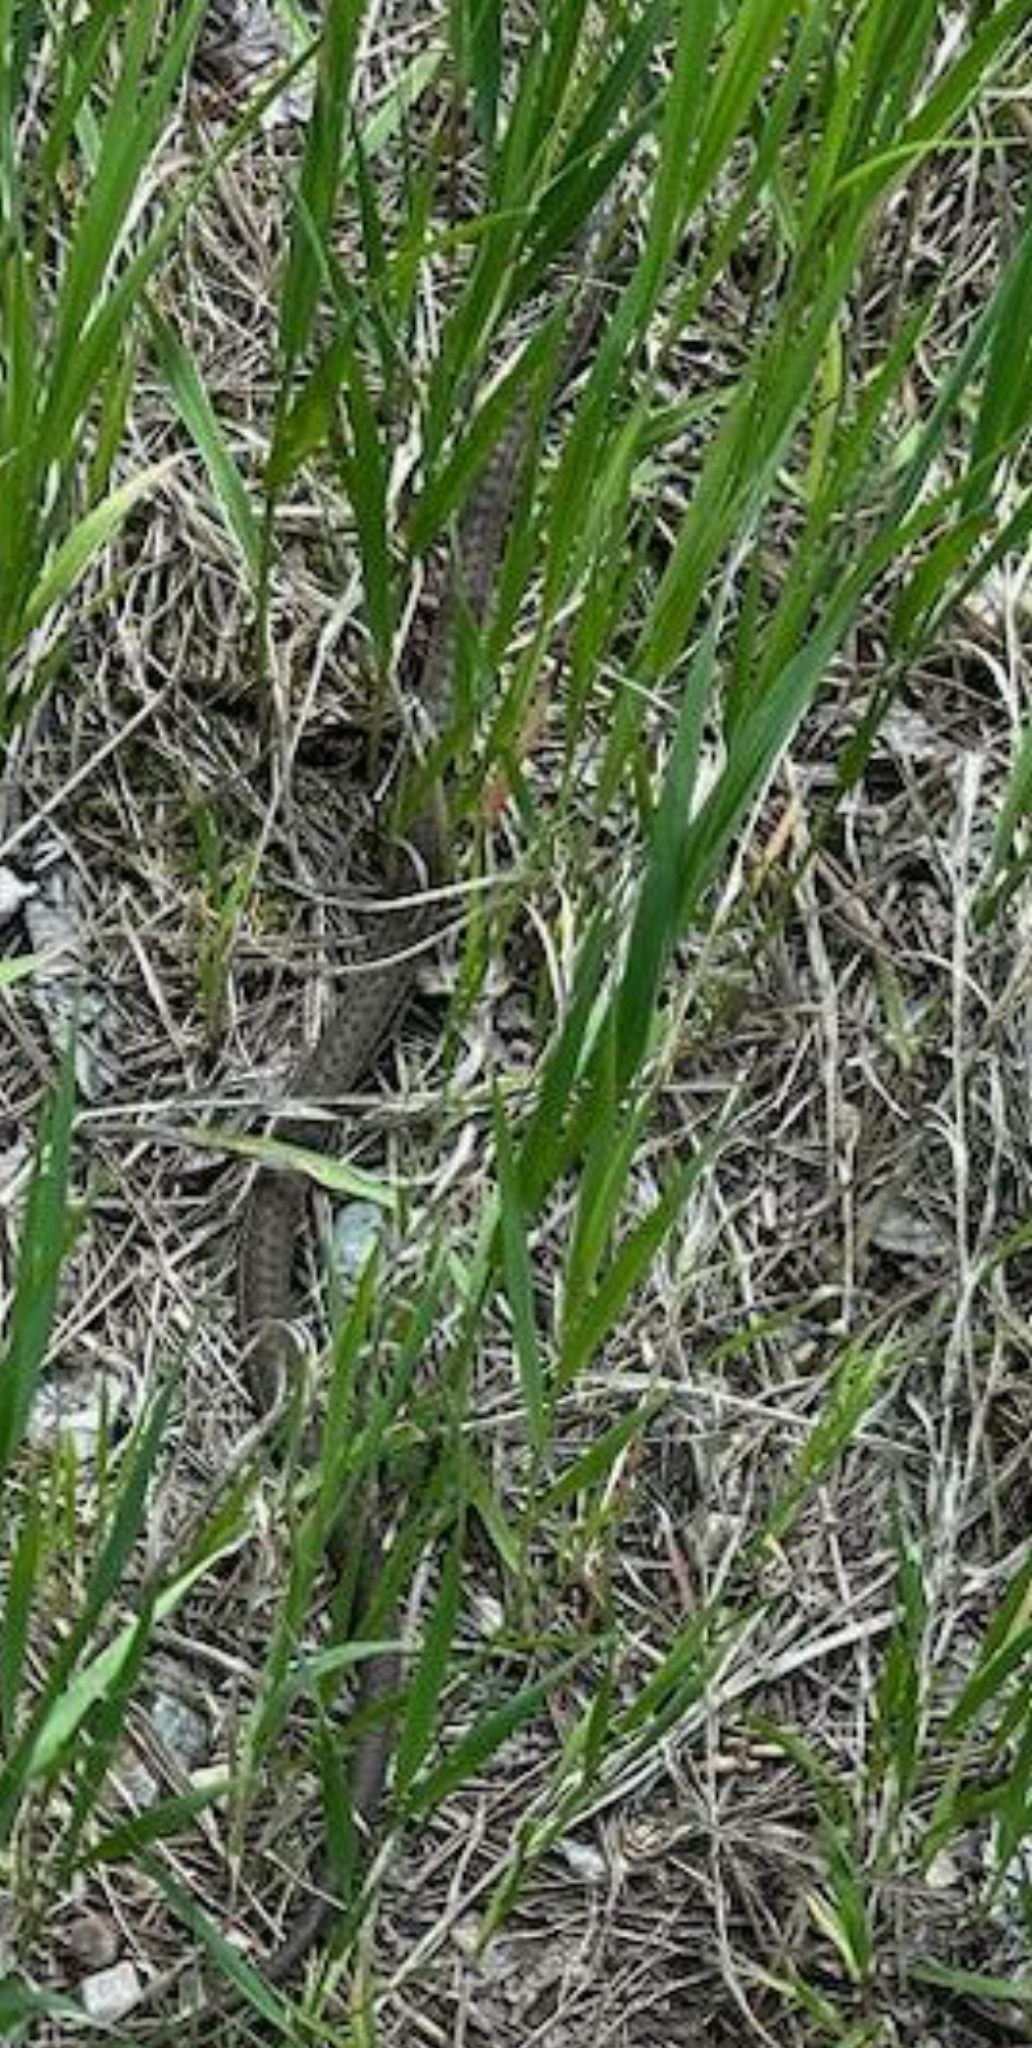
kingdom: Animalia
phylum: Chordata
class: Squamata
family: Colubridae
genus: Thamnophis
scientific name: Thamnophis elegans
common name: Western terrestrial garter snake
